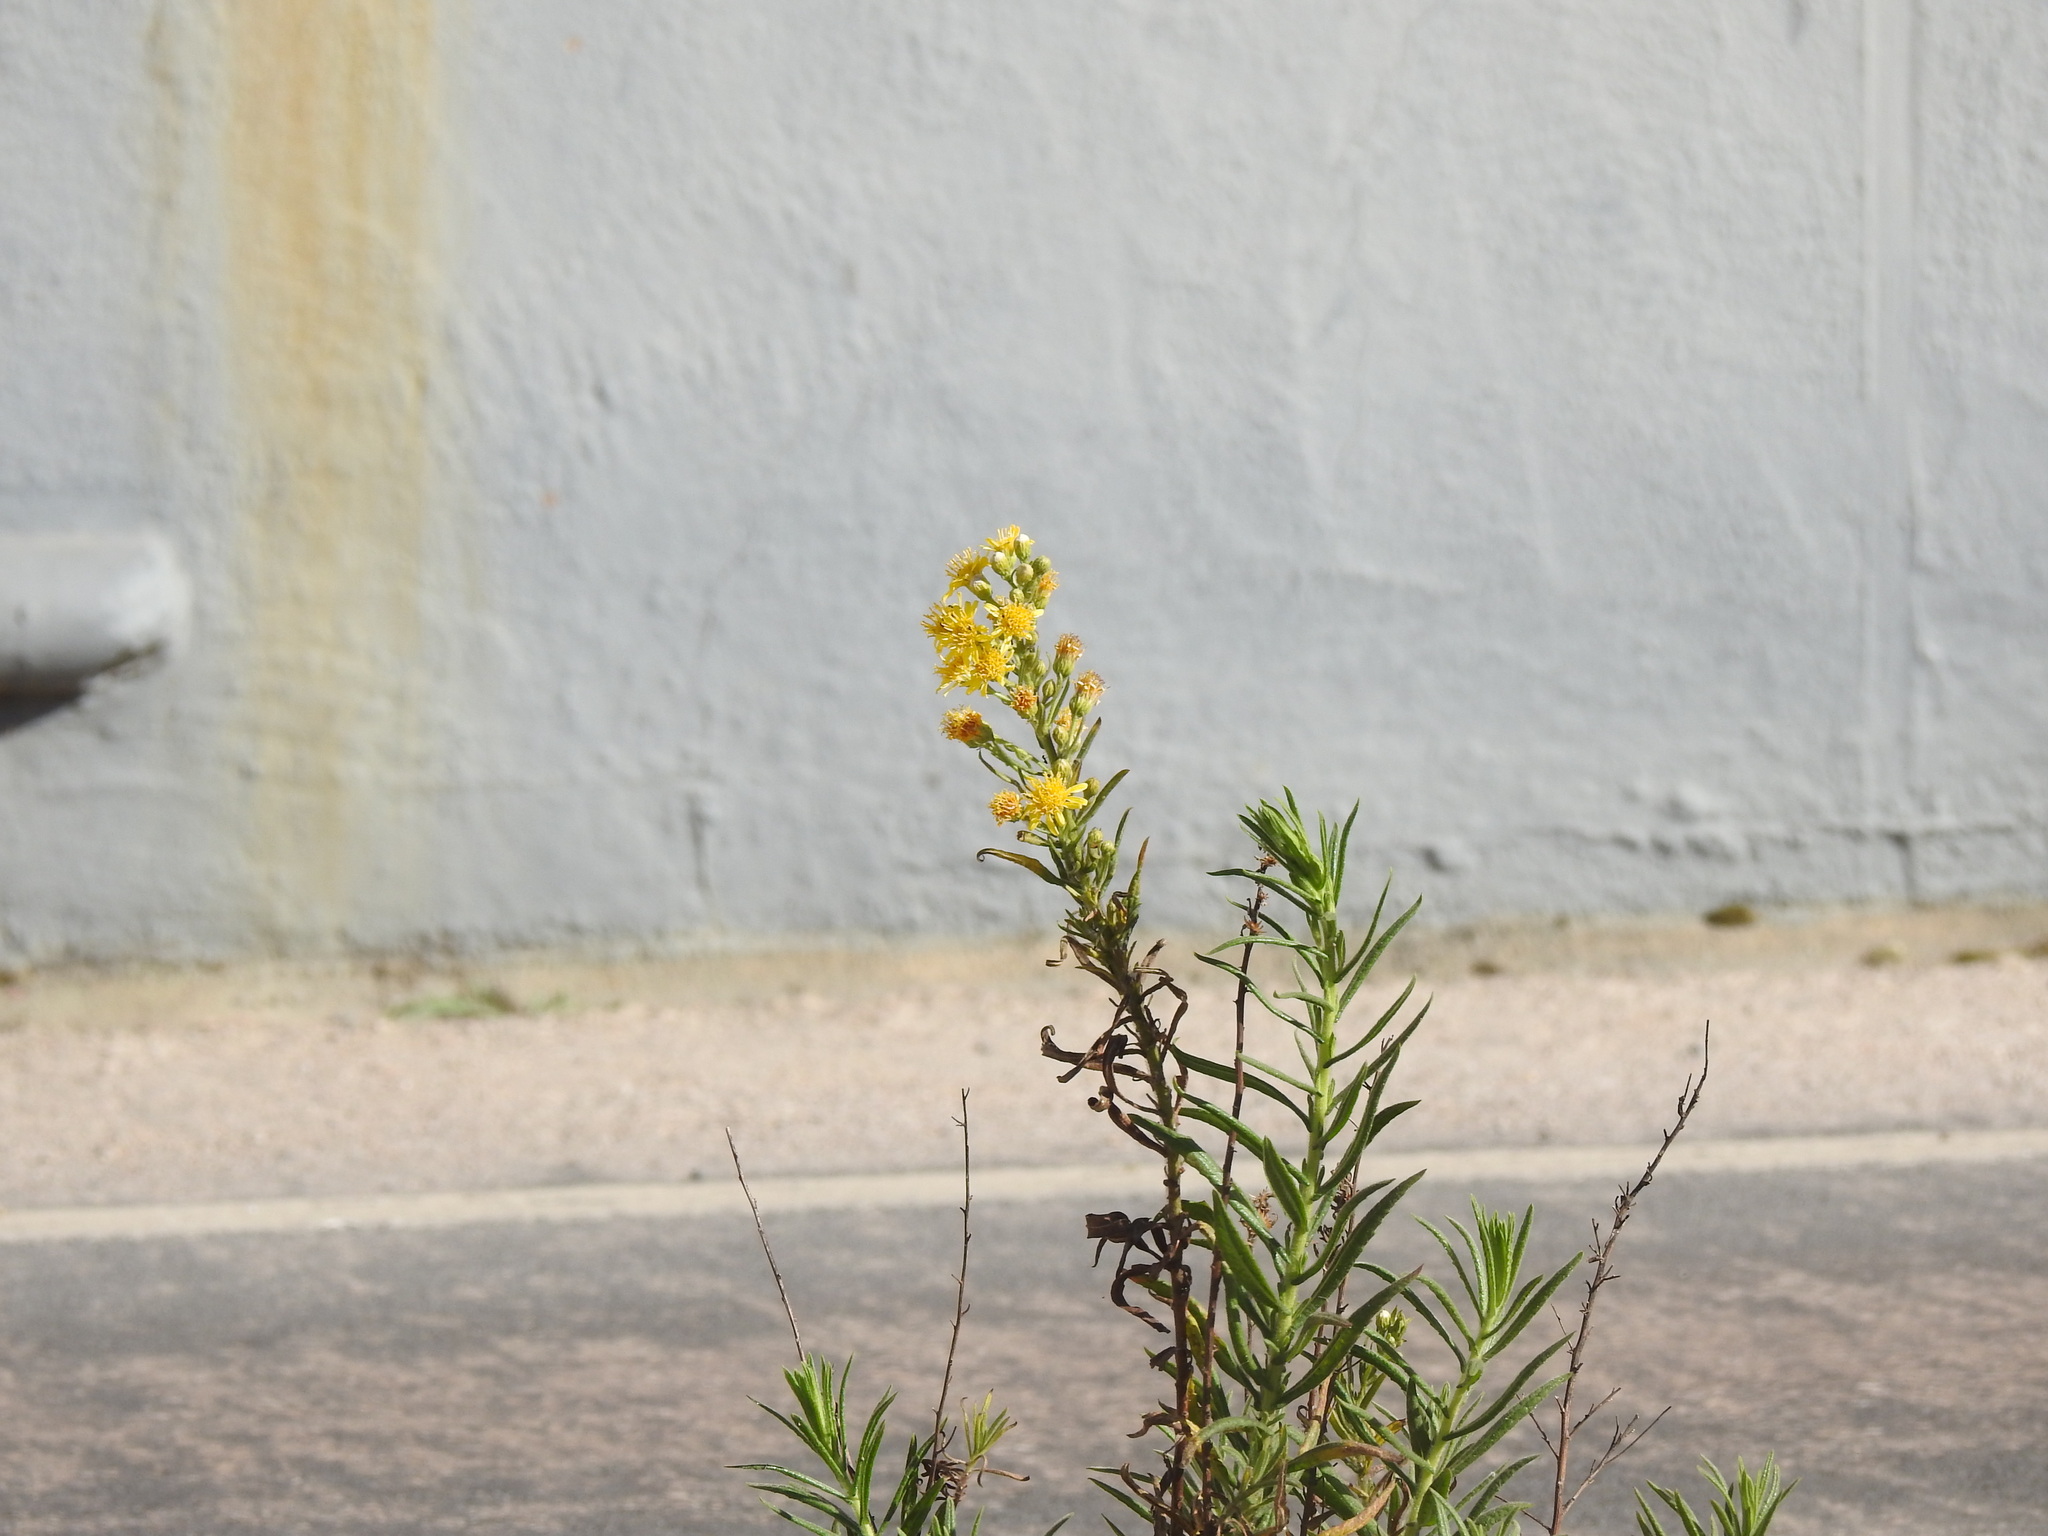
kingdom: Plantae
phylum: Tracheophyta
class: Magnoliopsida
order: Asterales
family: Asteraceae
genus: Dittrichia
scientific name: Dittrichia viscosa
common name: Woody fleabane
